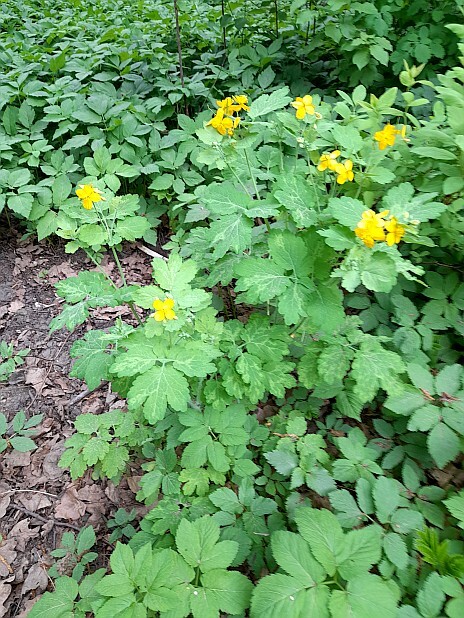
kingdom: Plantae
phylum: Tracheophyta
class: Magnoliopsida
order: Ranunculales
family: Papaveraceae
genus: Chelidonium
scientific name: Chelidonium majus
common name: Greater celandine
